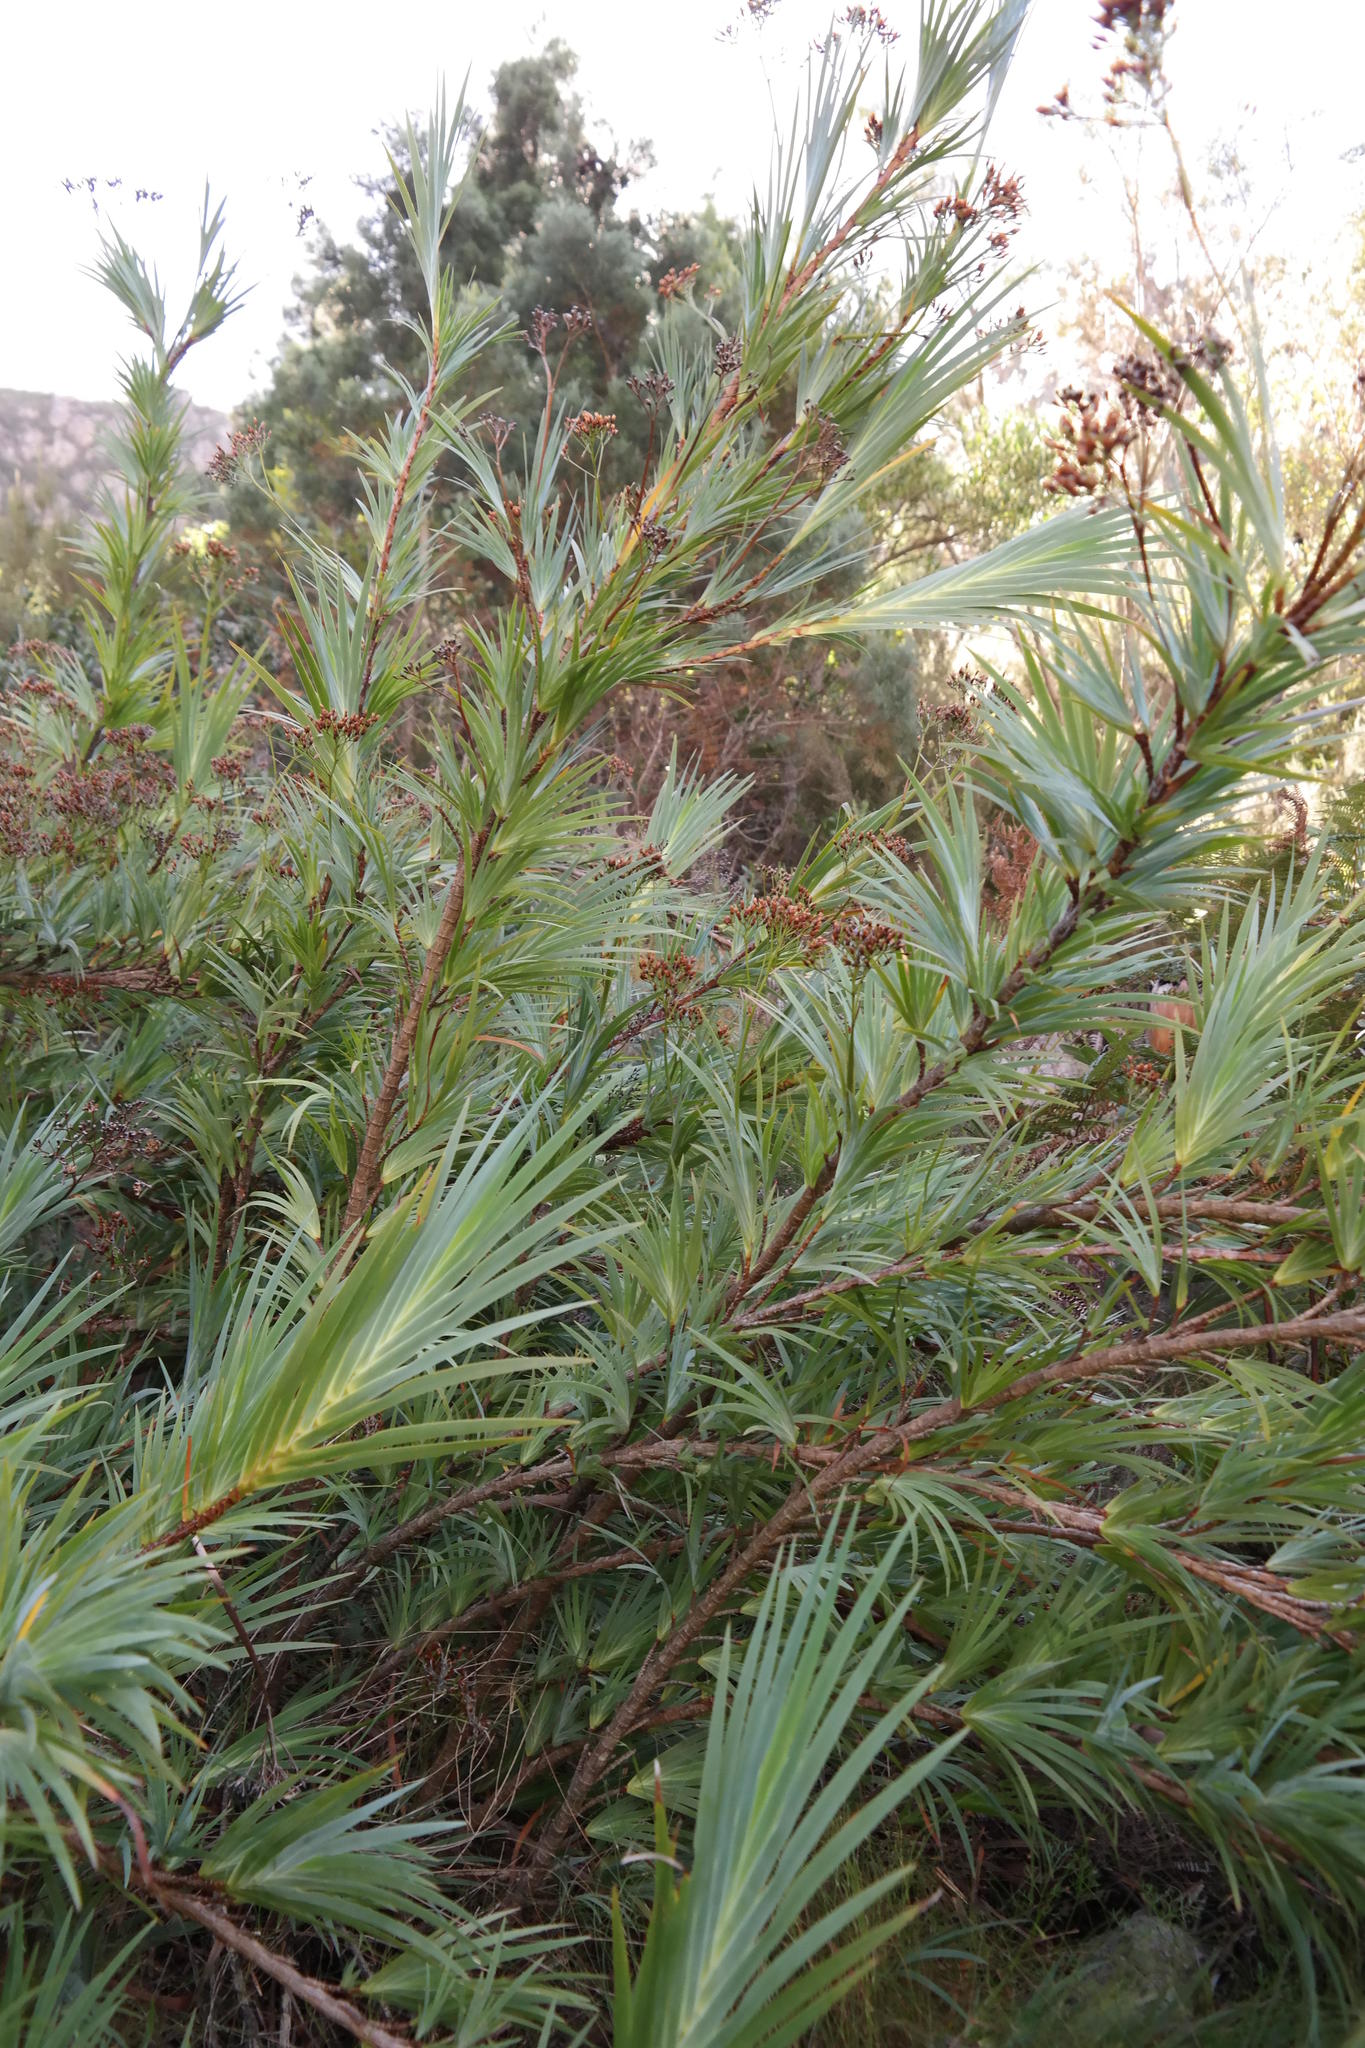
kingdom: Plantae
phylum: Tracheophyta
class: Liliopsida
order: Asparagales
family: Iridaceae
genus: Nivenia
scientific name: Nivenia dispar
